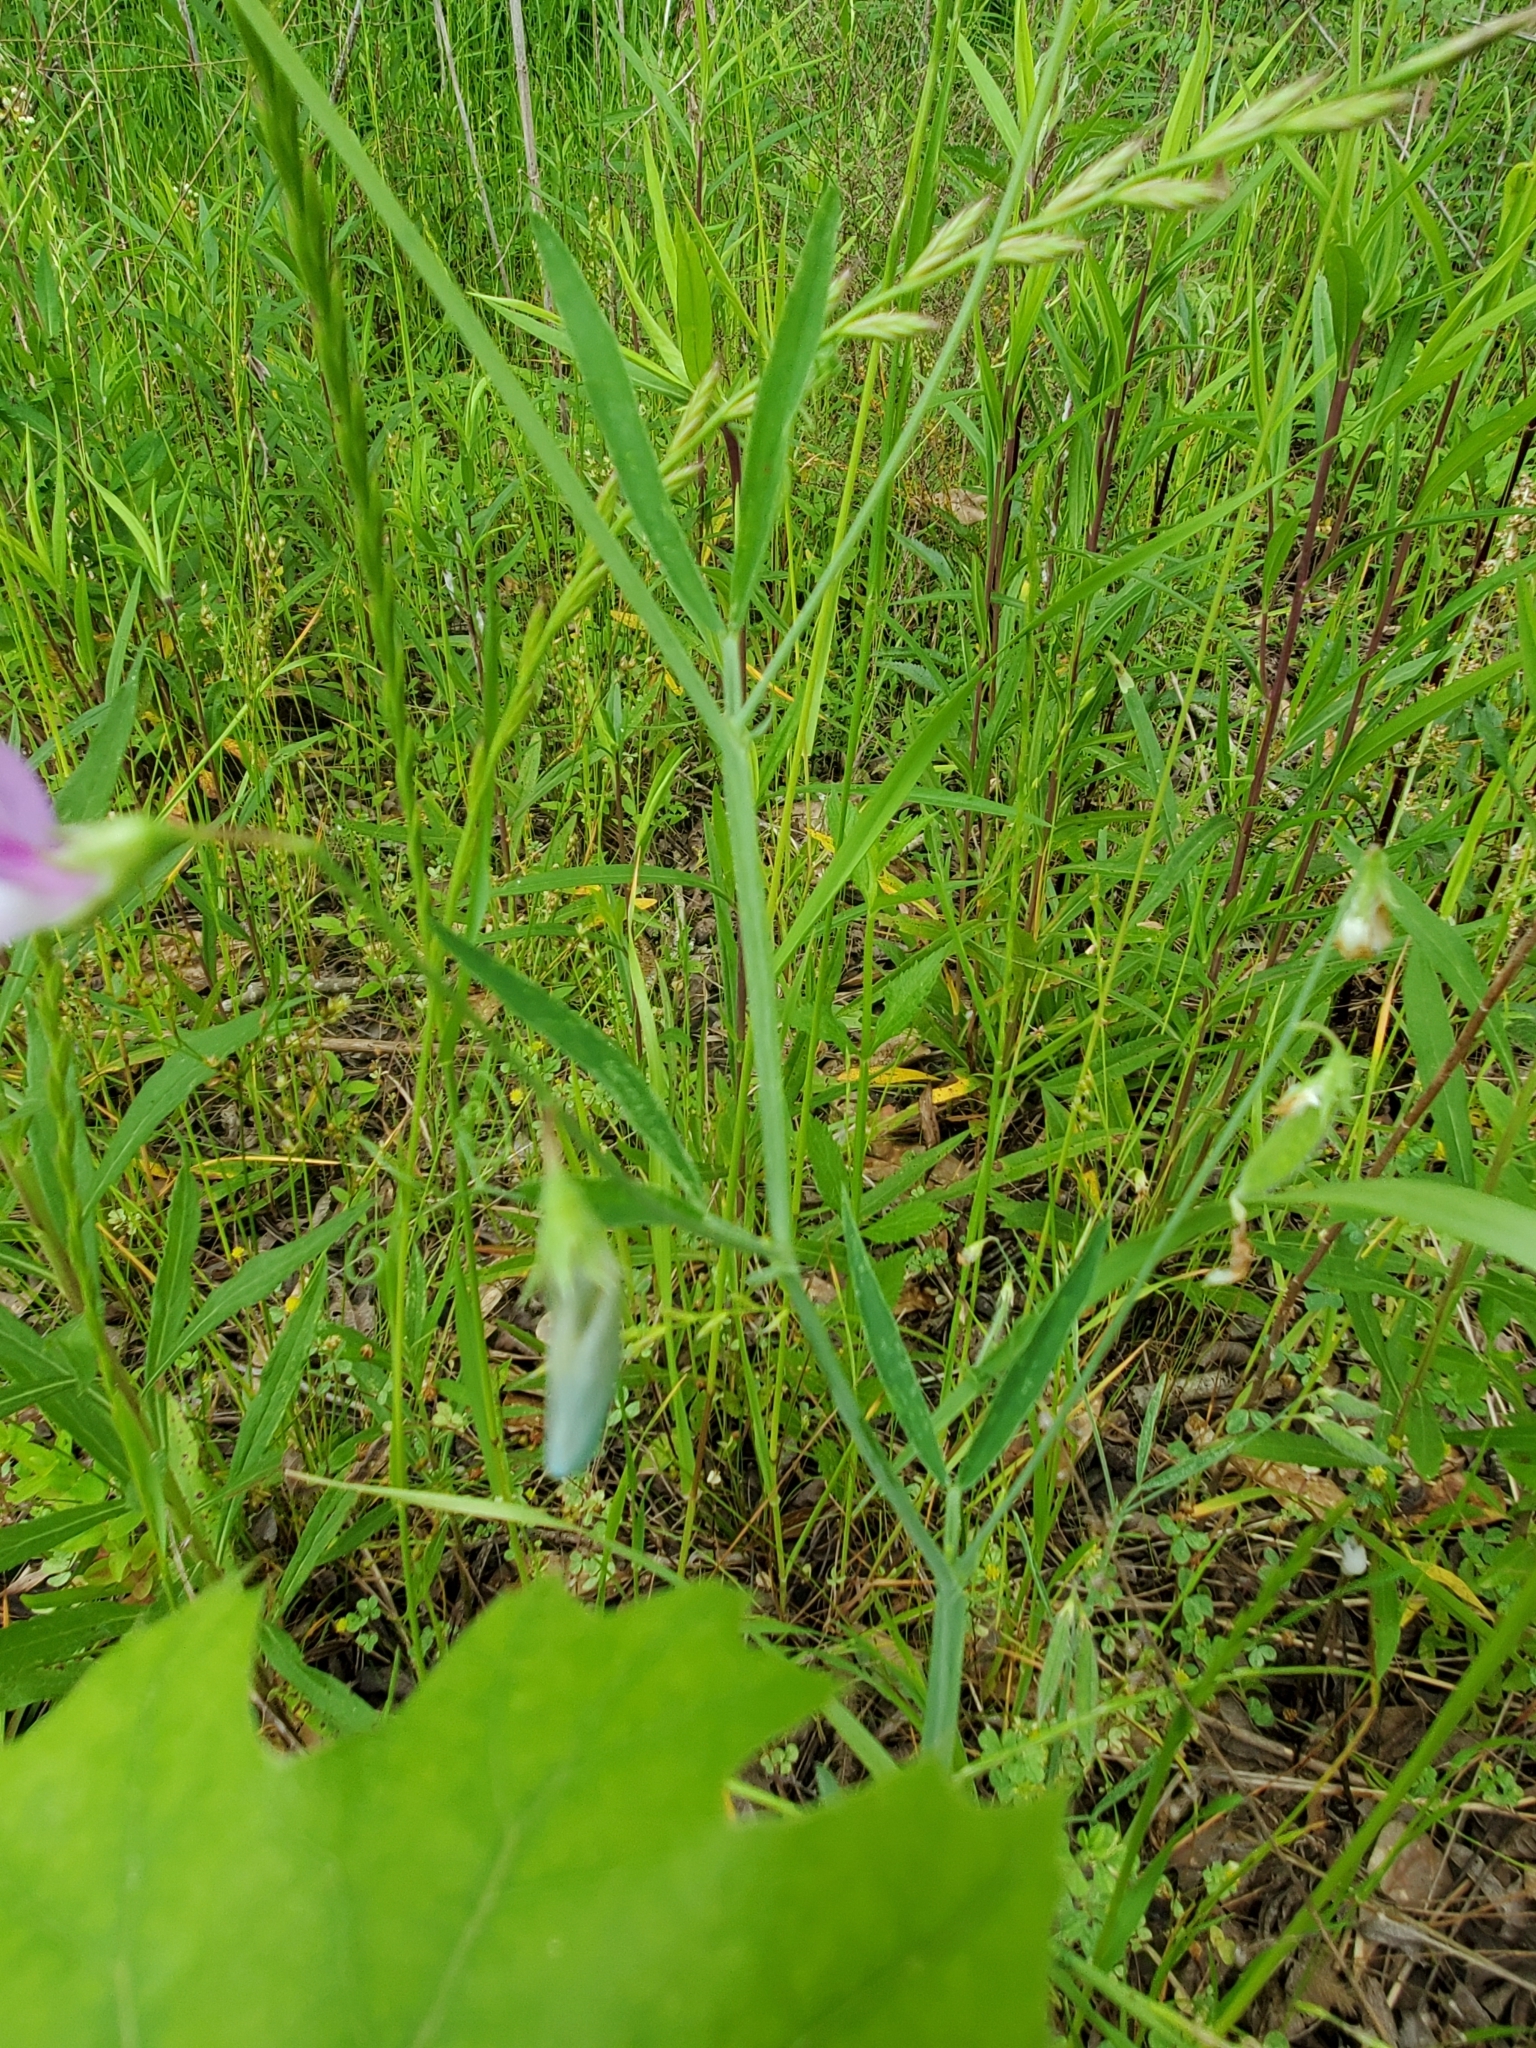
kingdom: Plantae
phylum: Tracheophyta
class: Magnoliopsida
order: Fabales
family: Fabaceae
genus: Lathyrus
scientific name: Lathyrus hirsutus
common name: Hairy vetchling
